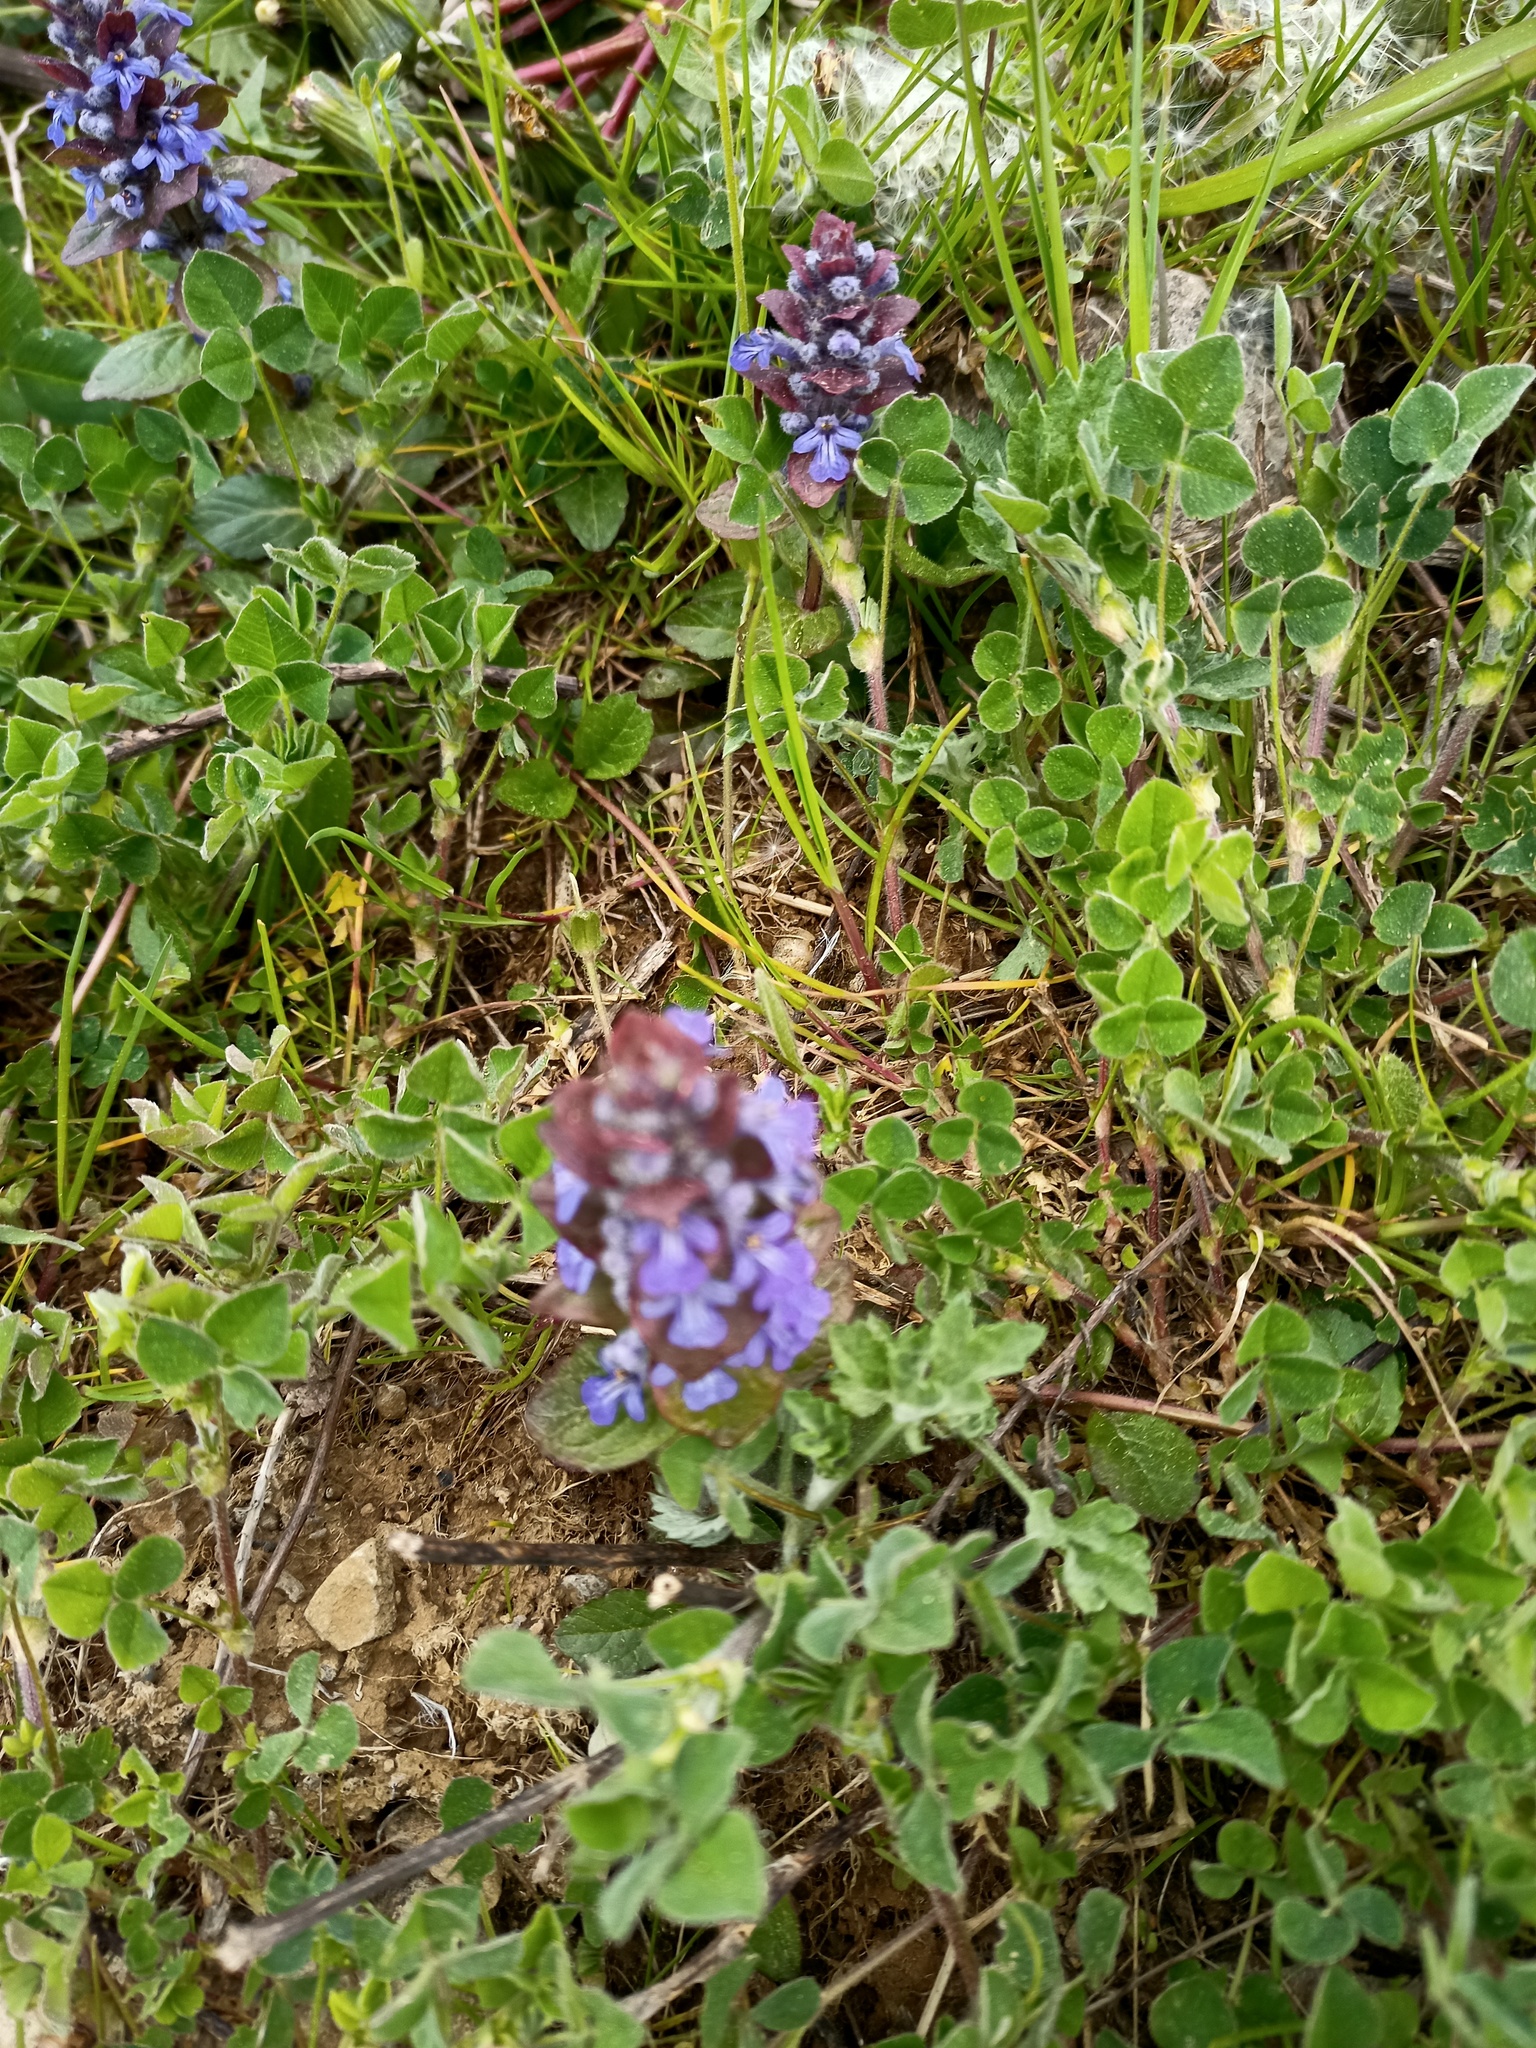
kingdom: Plantae
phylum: Tracheophyta
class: Magnoliopsida
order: Lamiales
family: Lamiaceae
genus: Ajuga
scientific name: Ajuga reptans
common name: Bugle
